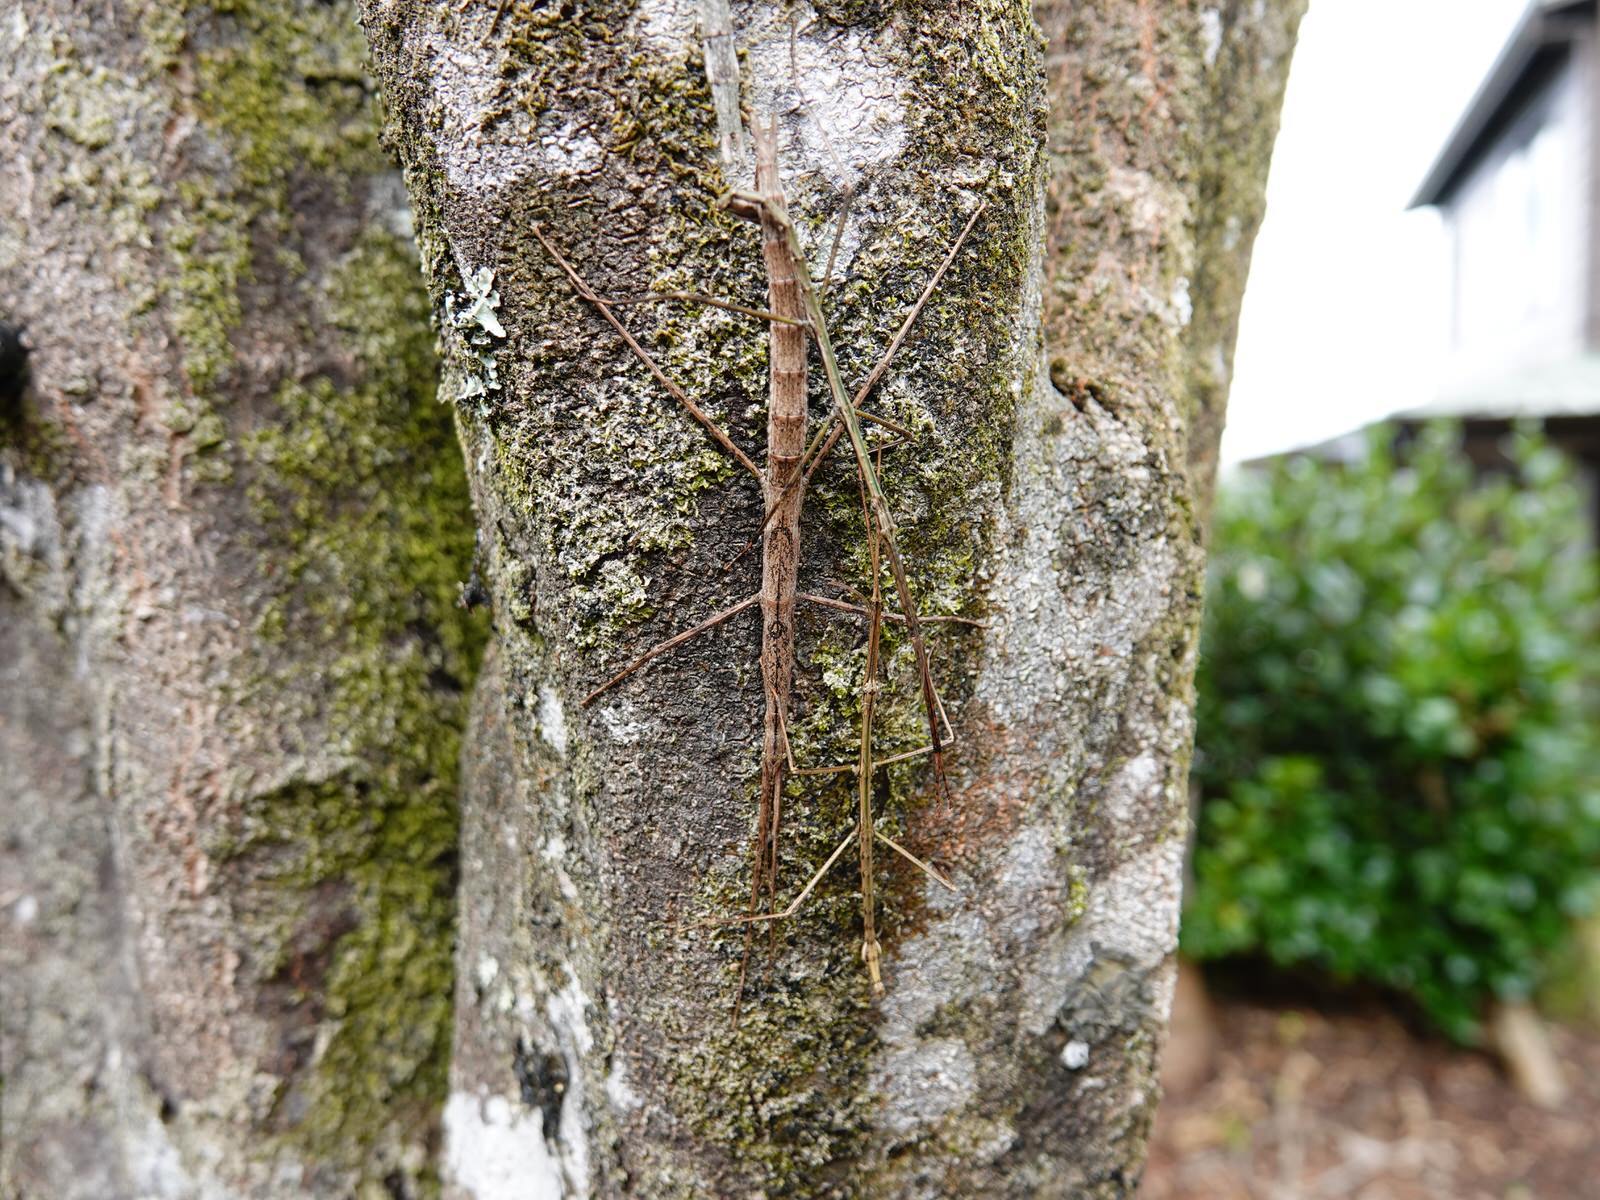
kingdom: Animalia
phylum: Arthropoda
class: Insecta
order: Phasmida
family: Phasmatidae
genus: Clitarchus
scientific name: Clitarchus hookeri
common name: Smooth stick insect
